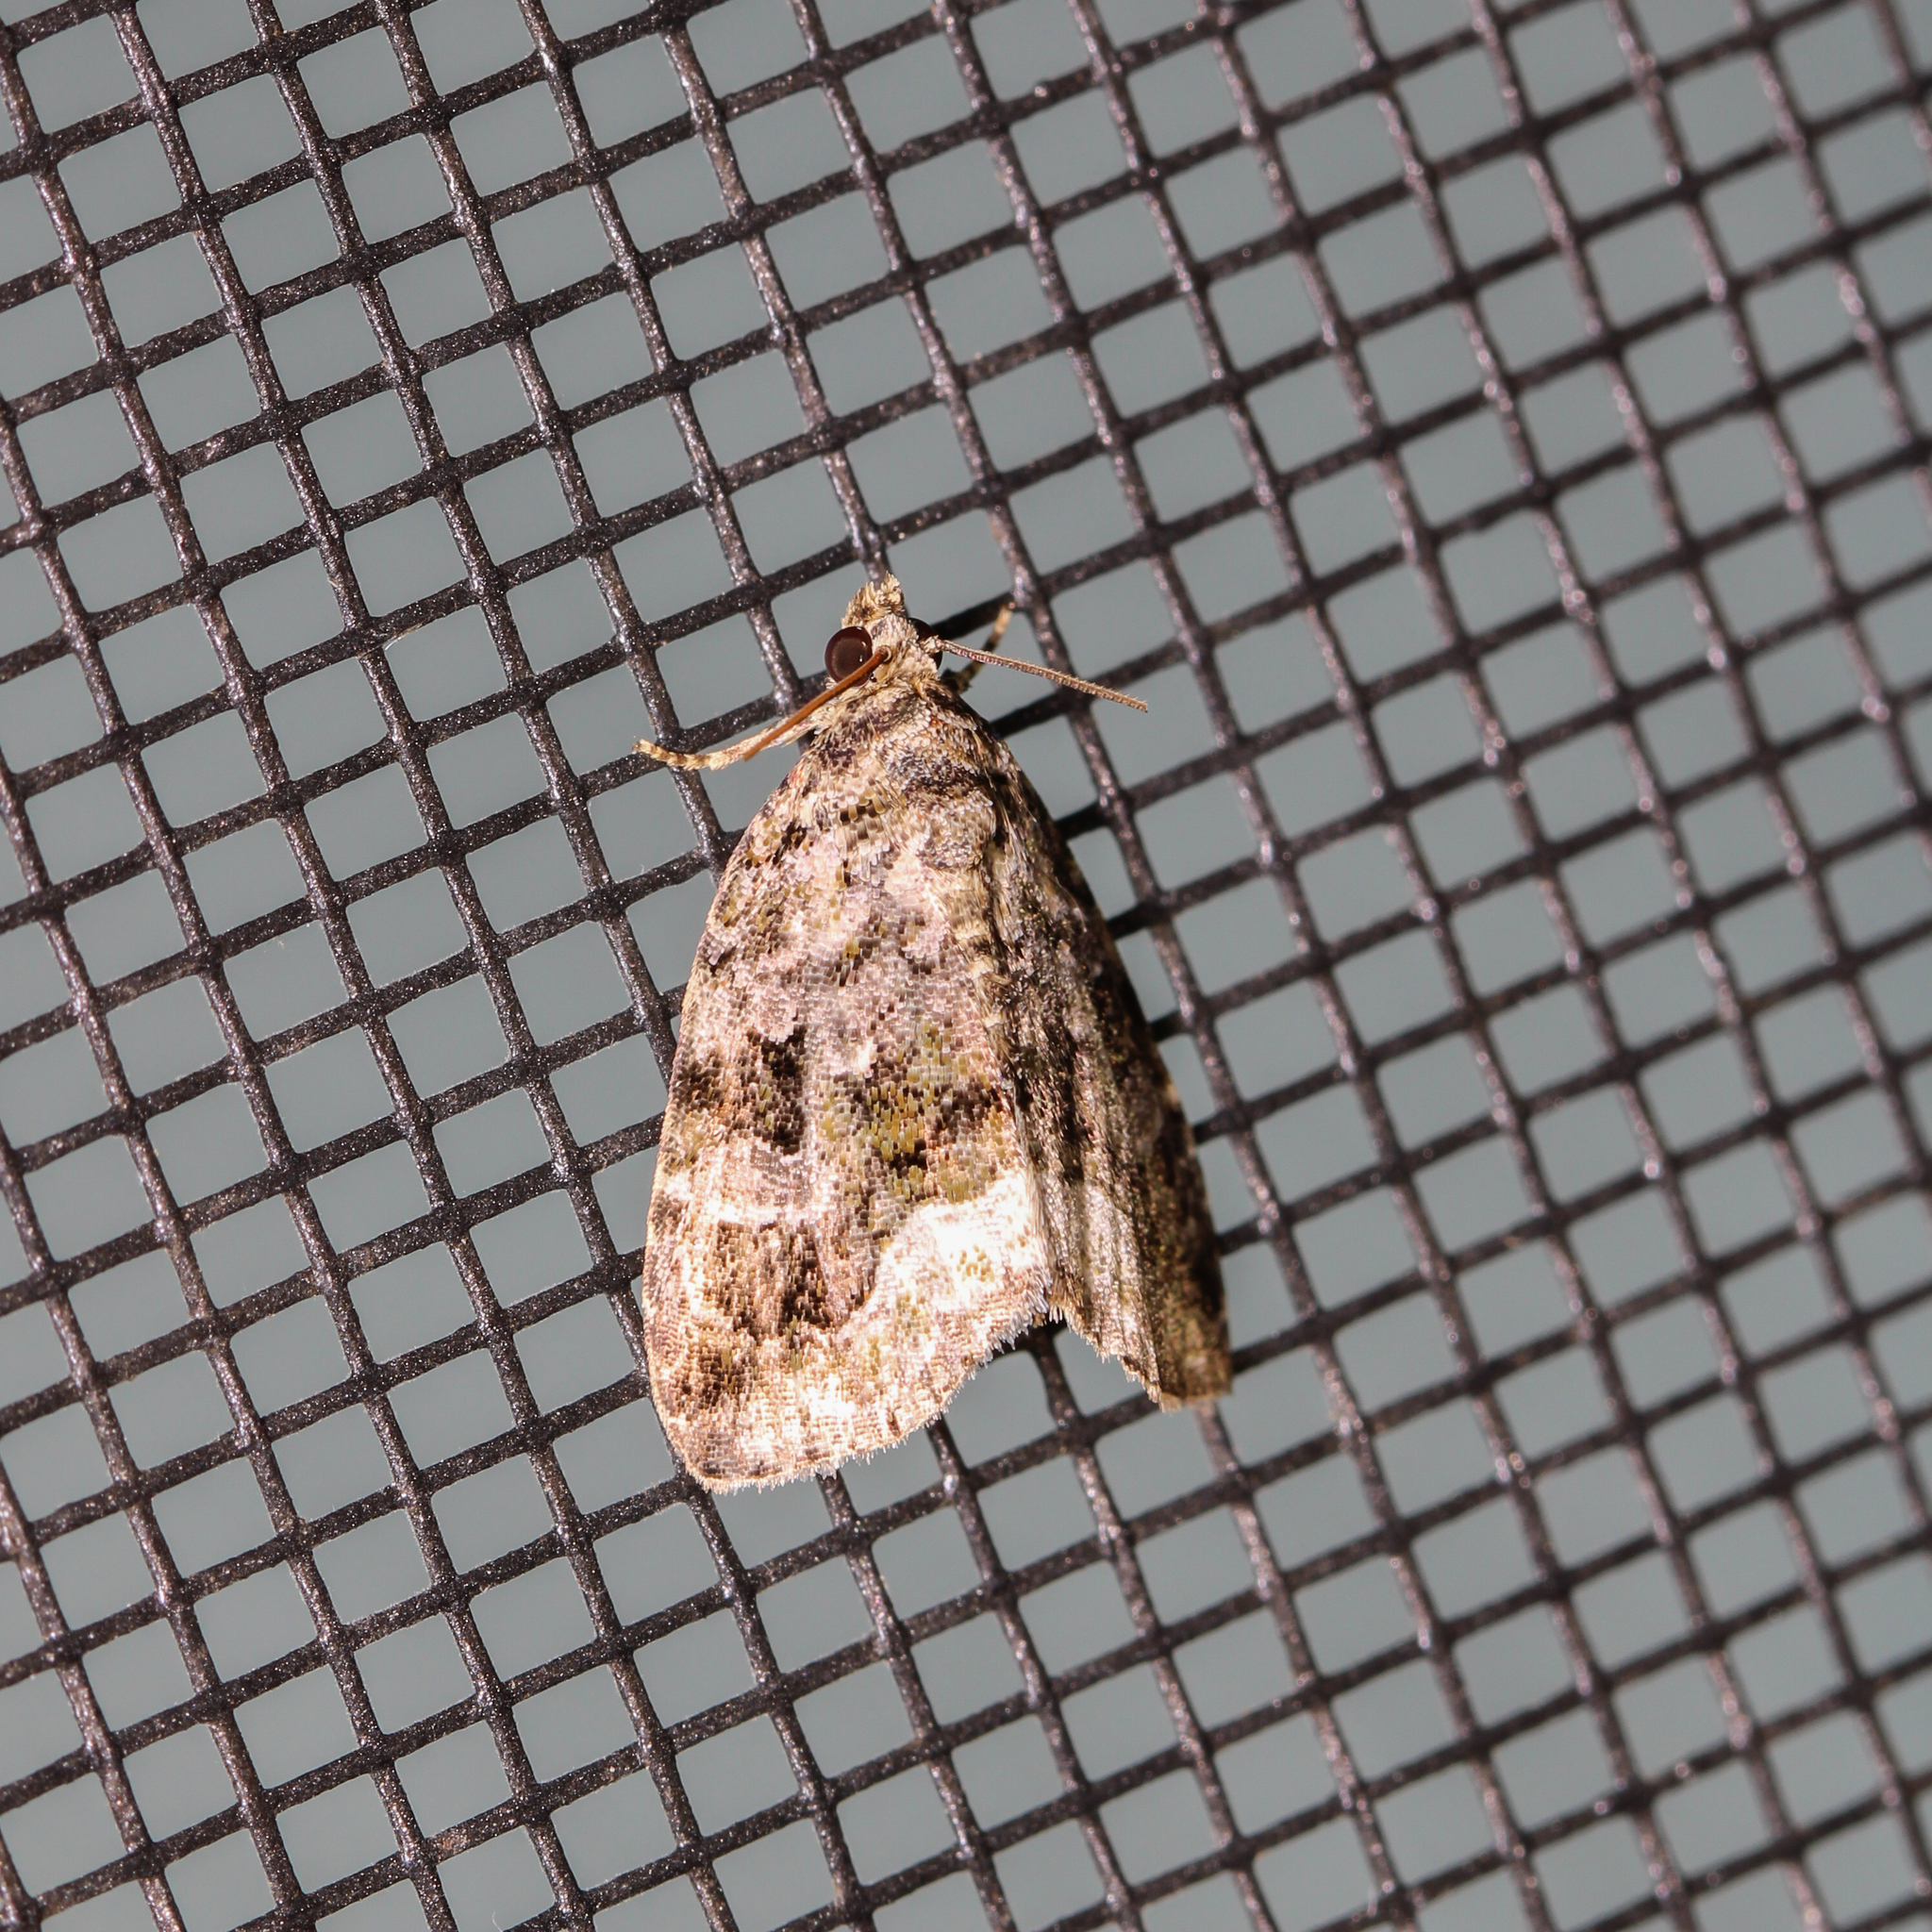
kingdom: Animalia
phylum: Arthropoda
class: Insecta
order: Lepidoptera
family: Noctuidae
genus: Protodeltote
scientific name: Protodeltote muscosula
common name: Large mossy glyph
